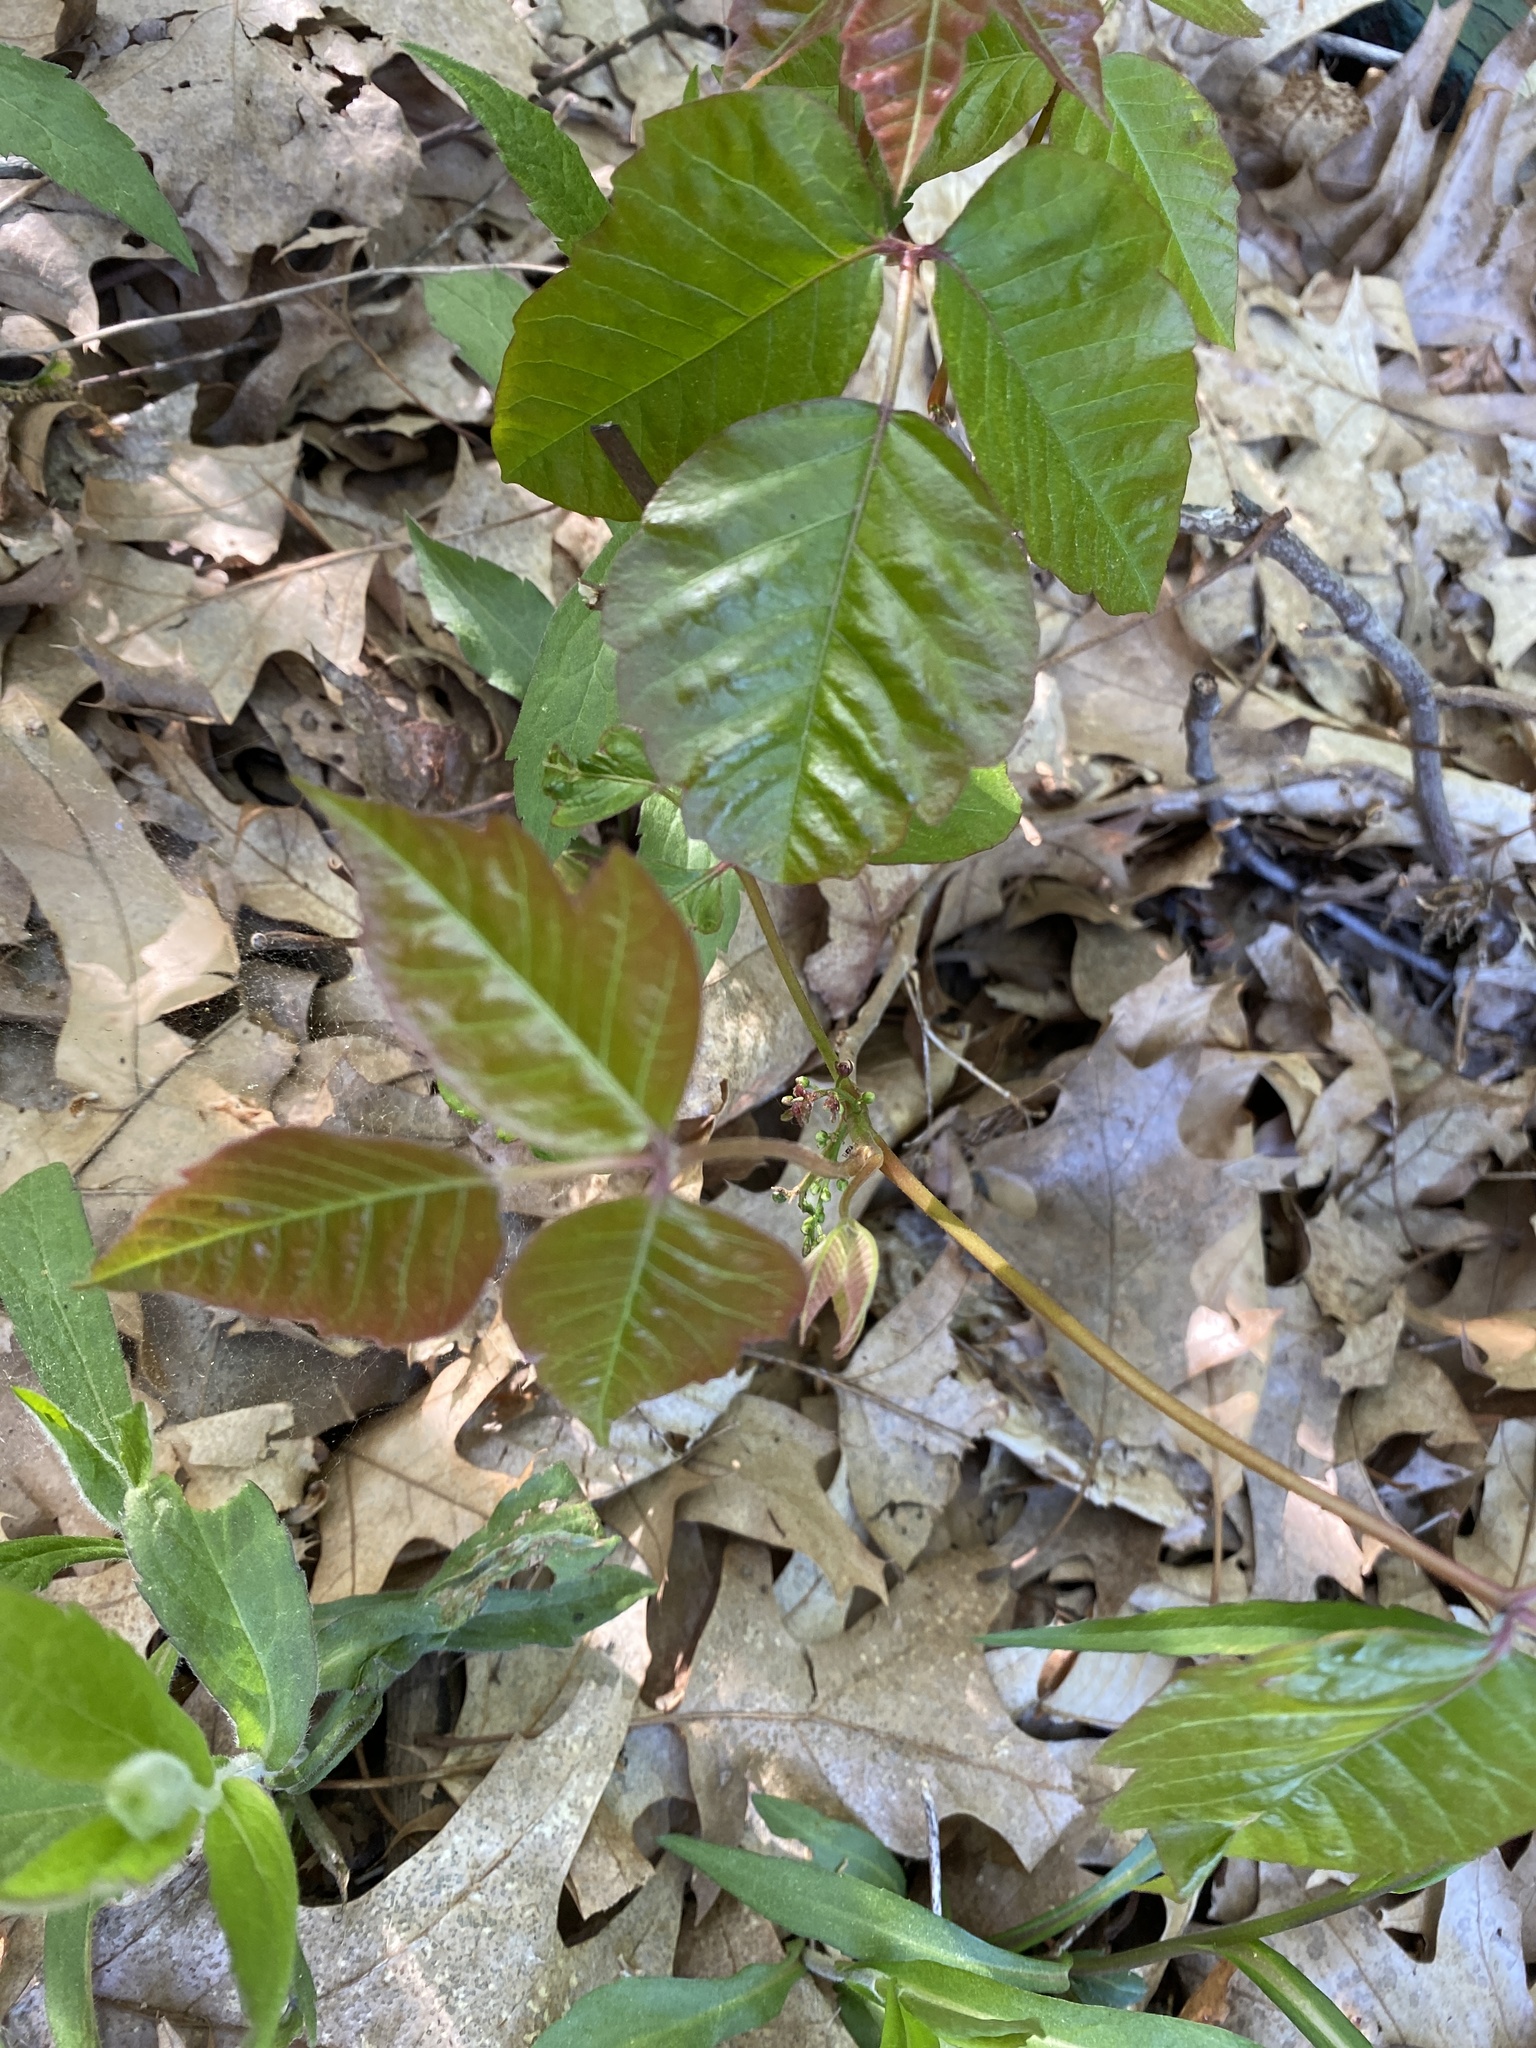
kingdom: Plantae
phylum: Tracheophyta
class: Magnoliopsida
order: Sapindales
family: Anacardiaceae
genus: Toxicodendron
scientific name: Toxicodendron radicans
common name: Poison ivy
